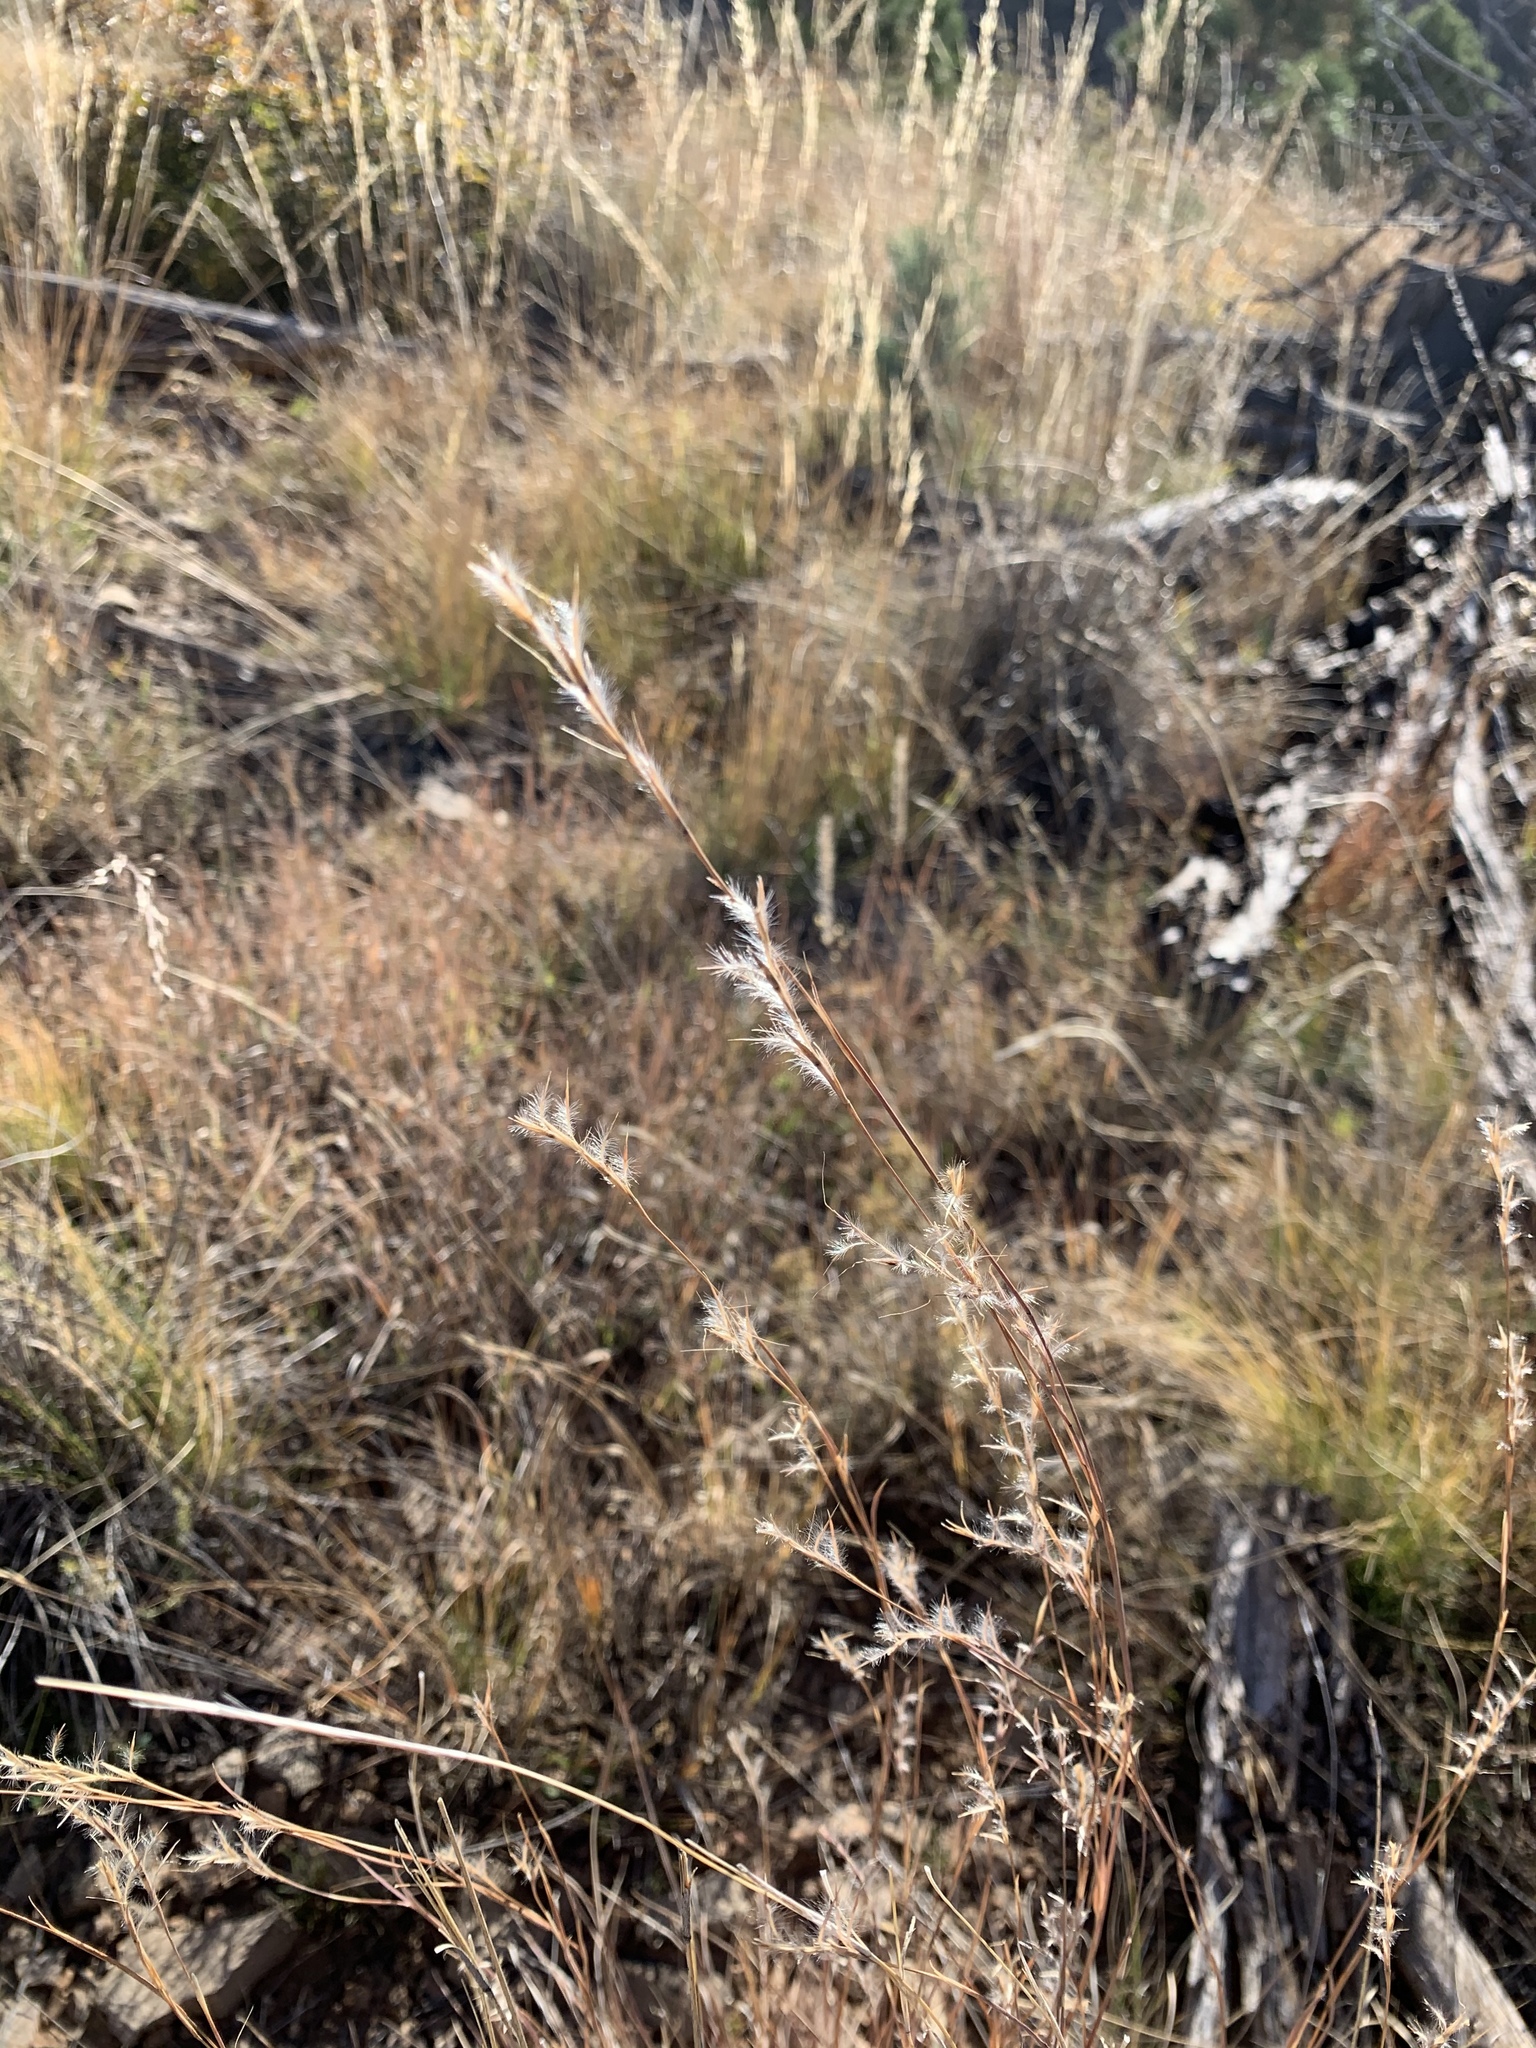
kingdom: Plantae
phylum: Tracheophyta
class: Liliopsida
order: Poales
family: Poaceae
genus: Schizachyrium
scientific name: Schizachyrium scoparium
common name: Little bluestem
